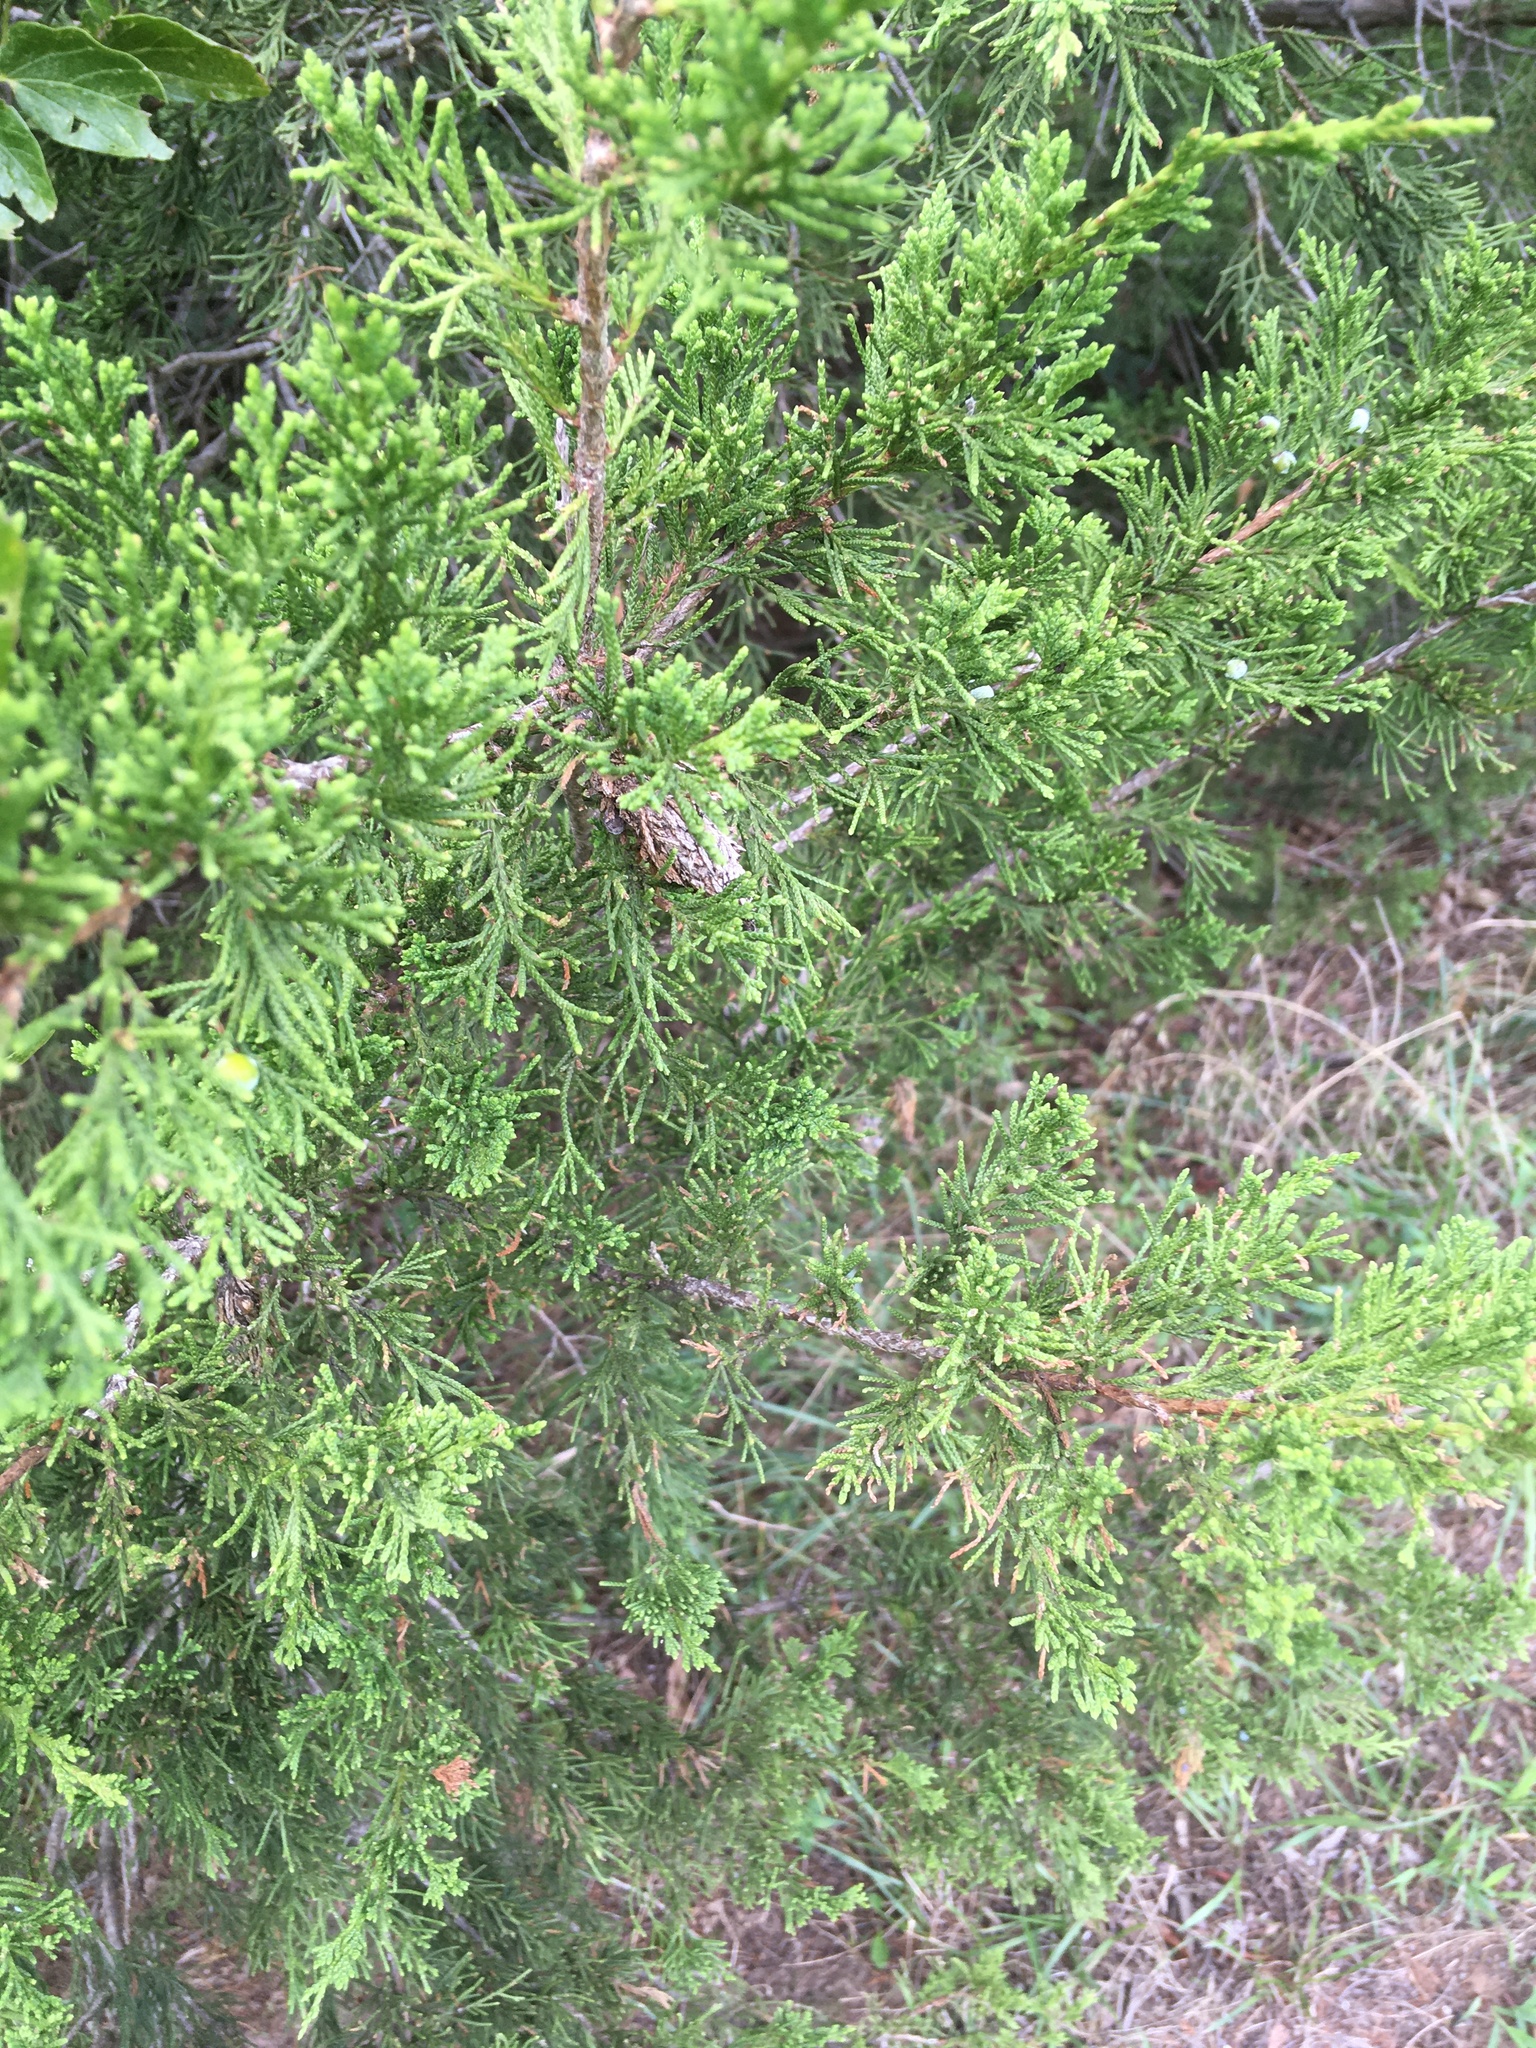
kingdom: Plantae
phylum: Tracheophyta
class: Pinopsida
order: Pinales
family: Cupressaceae
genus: Juniperus
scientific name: Juniperus virginiana
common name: Red juniper
